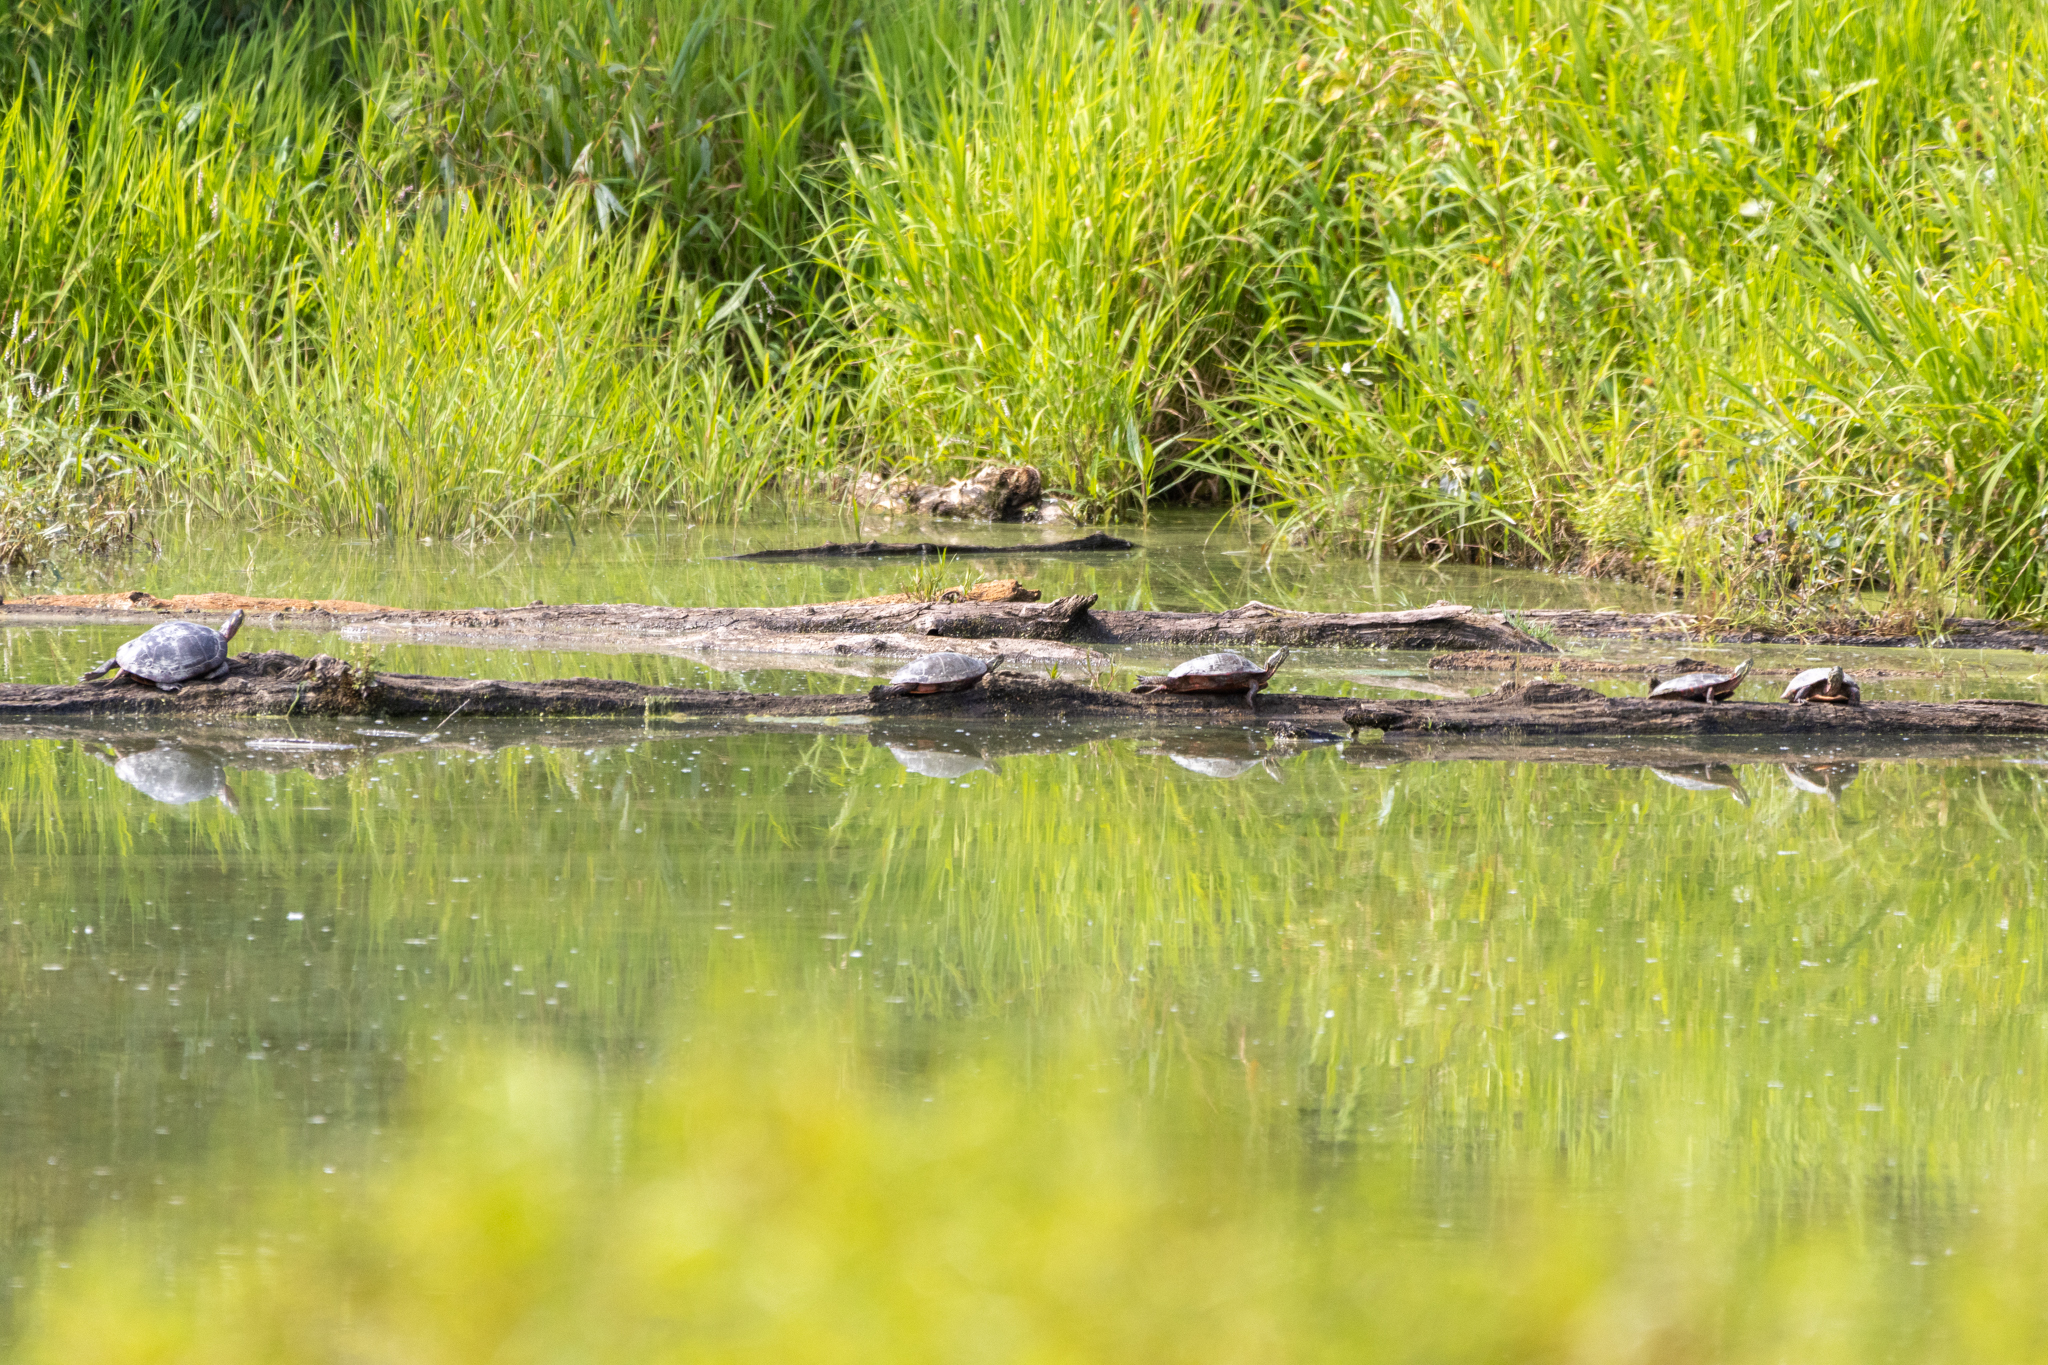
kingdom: Animalia
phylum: Chordata
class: Testudines
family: Emydidae
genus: Chrysemys
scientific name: Chrysemys picta
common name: Painted turtle
